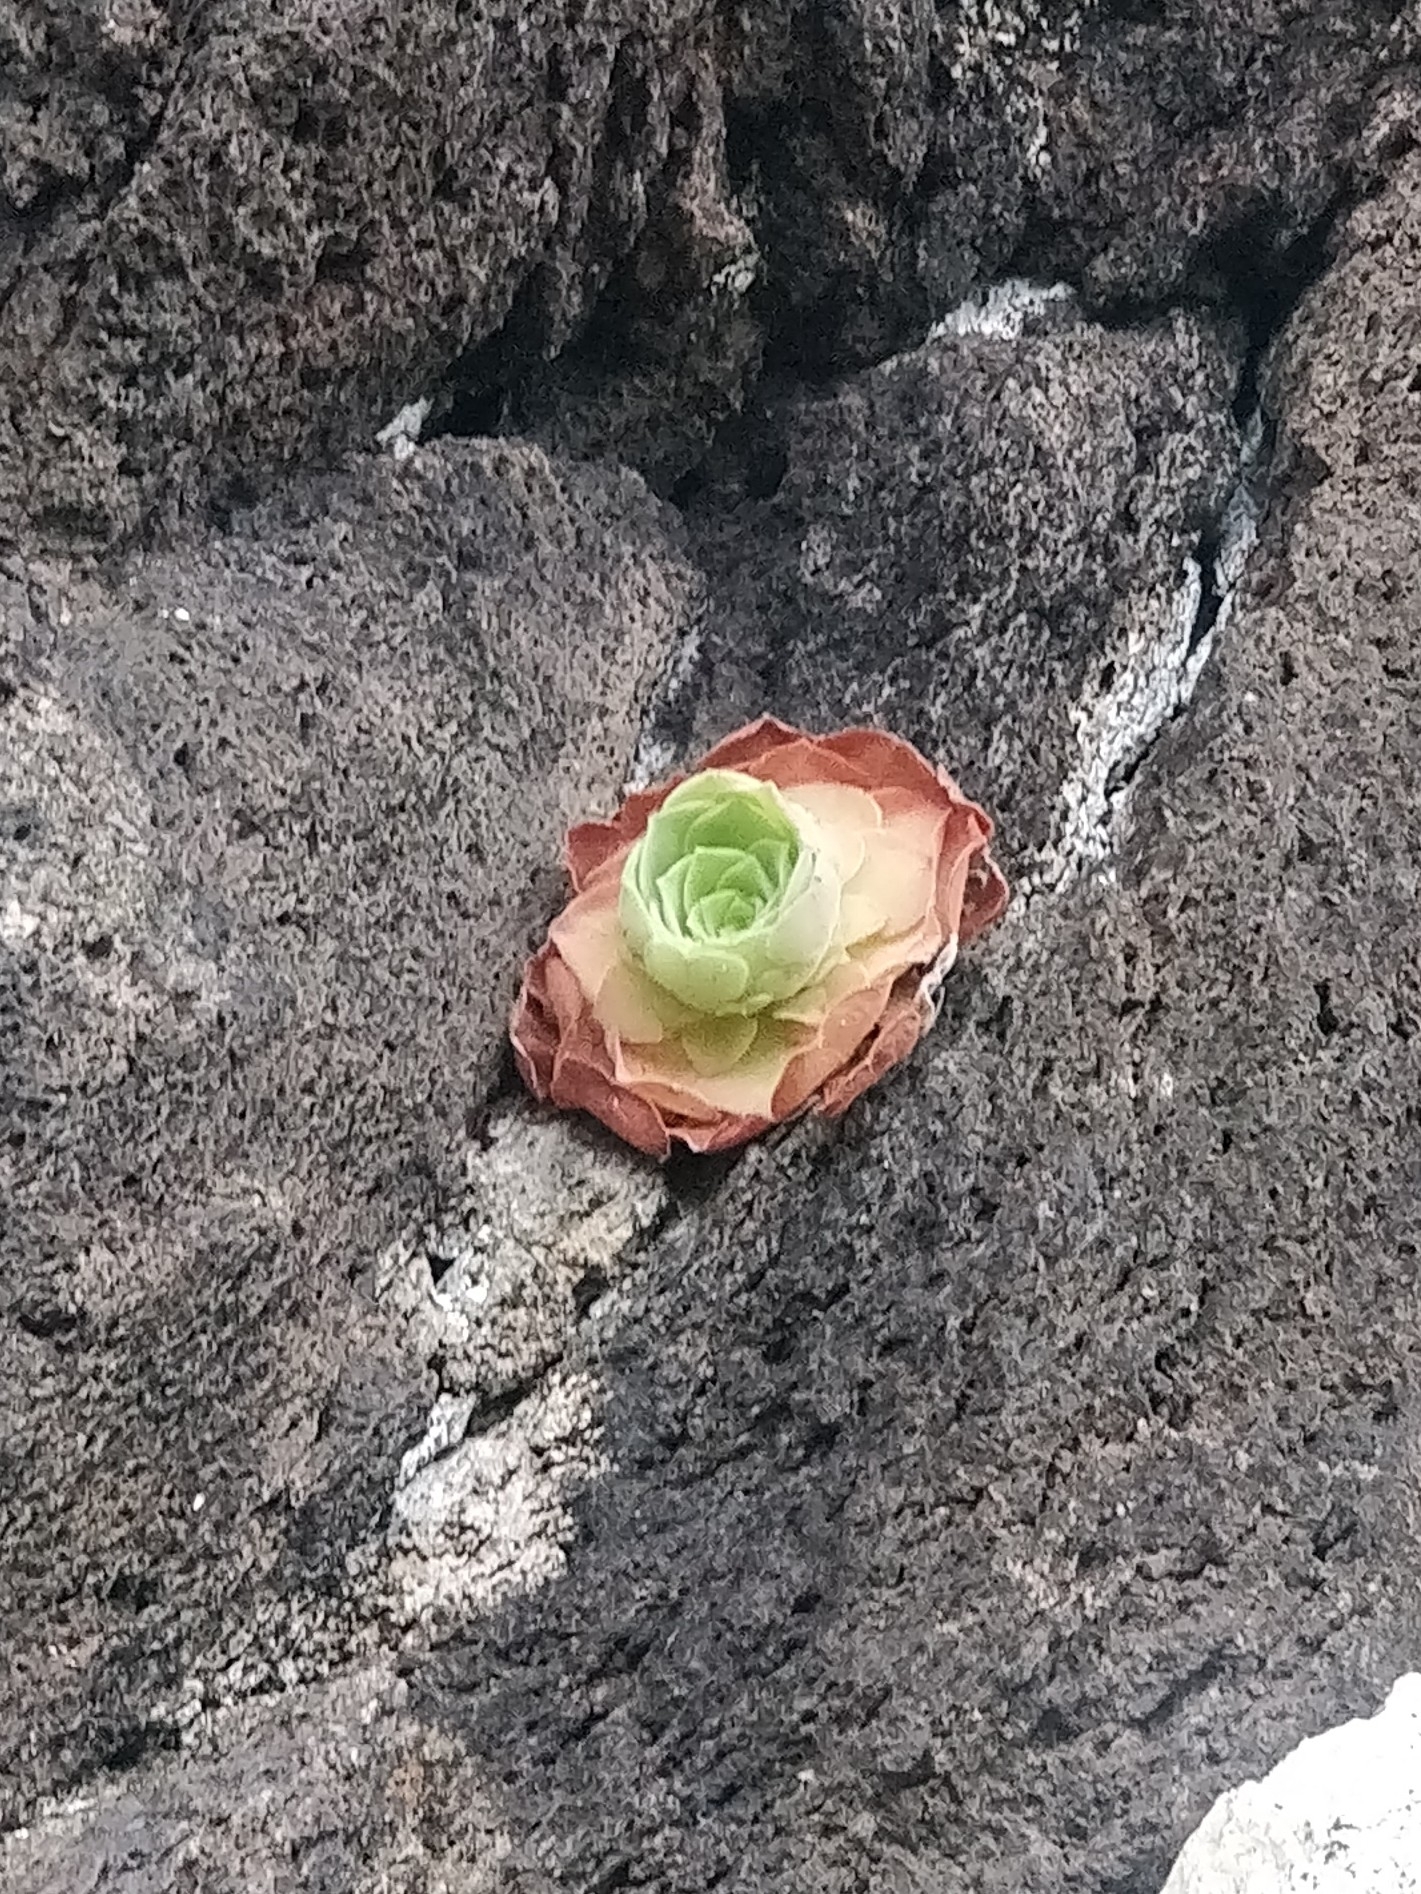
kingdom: Plantae
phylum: Tracheophyta
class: Magnoliopsida
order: Saxifragales
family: Crassulaceae
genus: Aeonium
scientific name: Aeonium glandulosum
